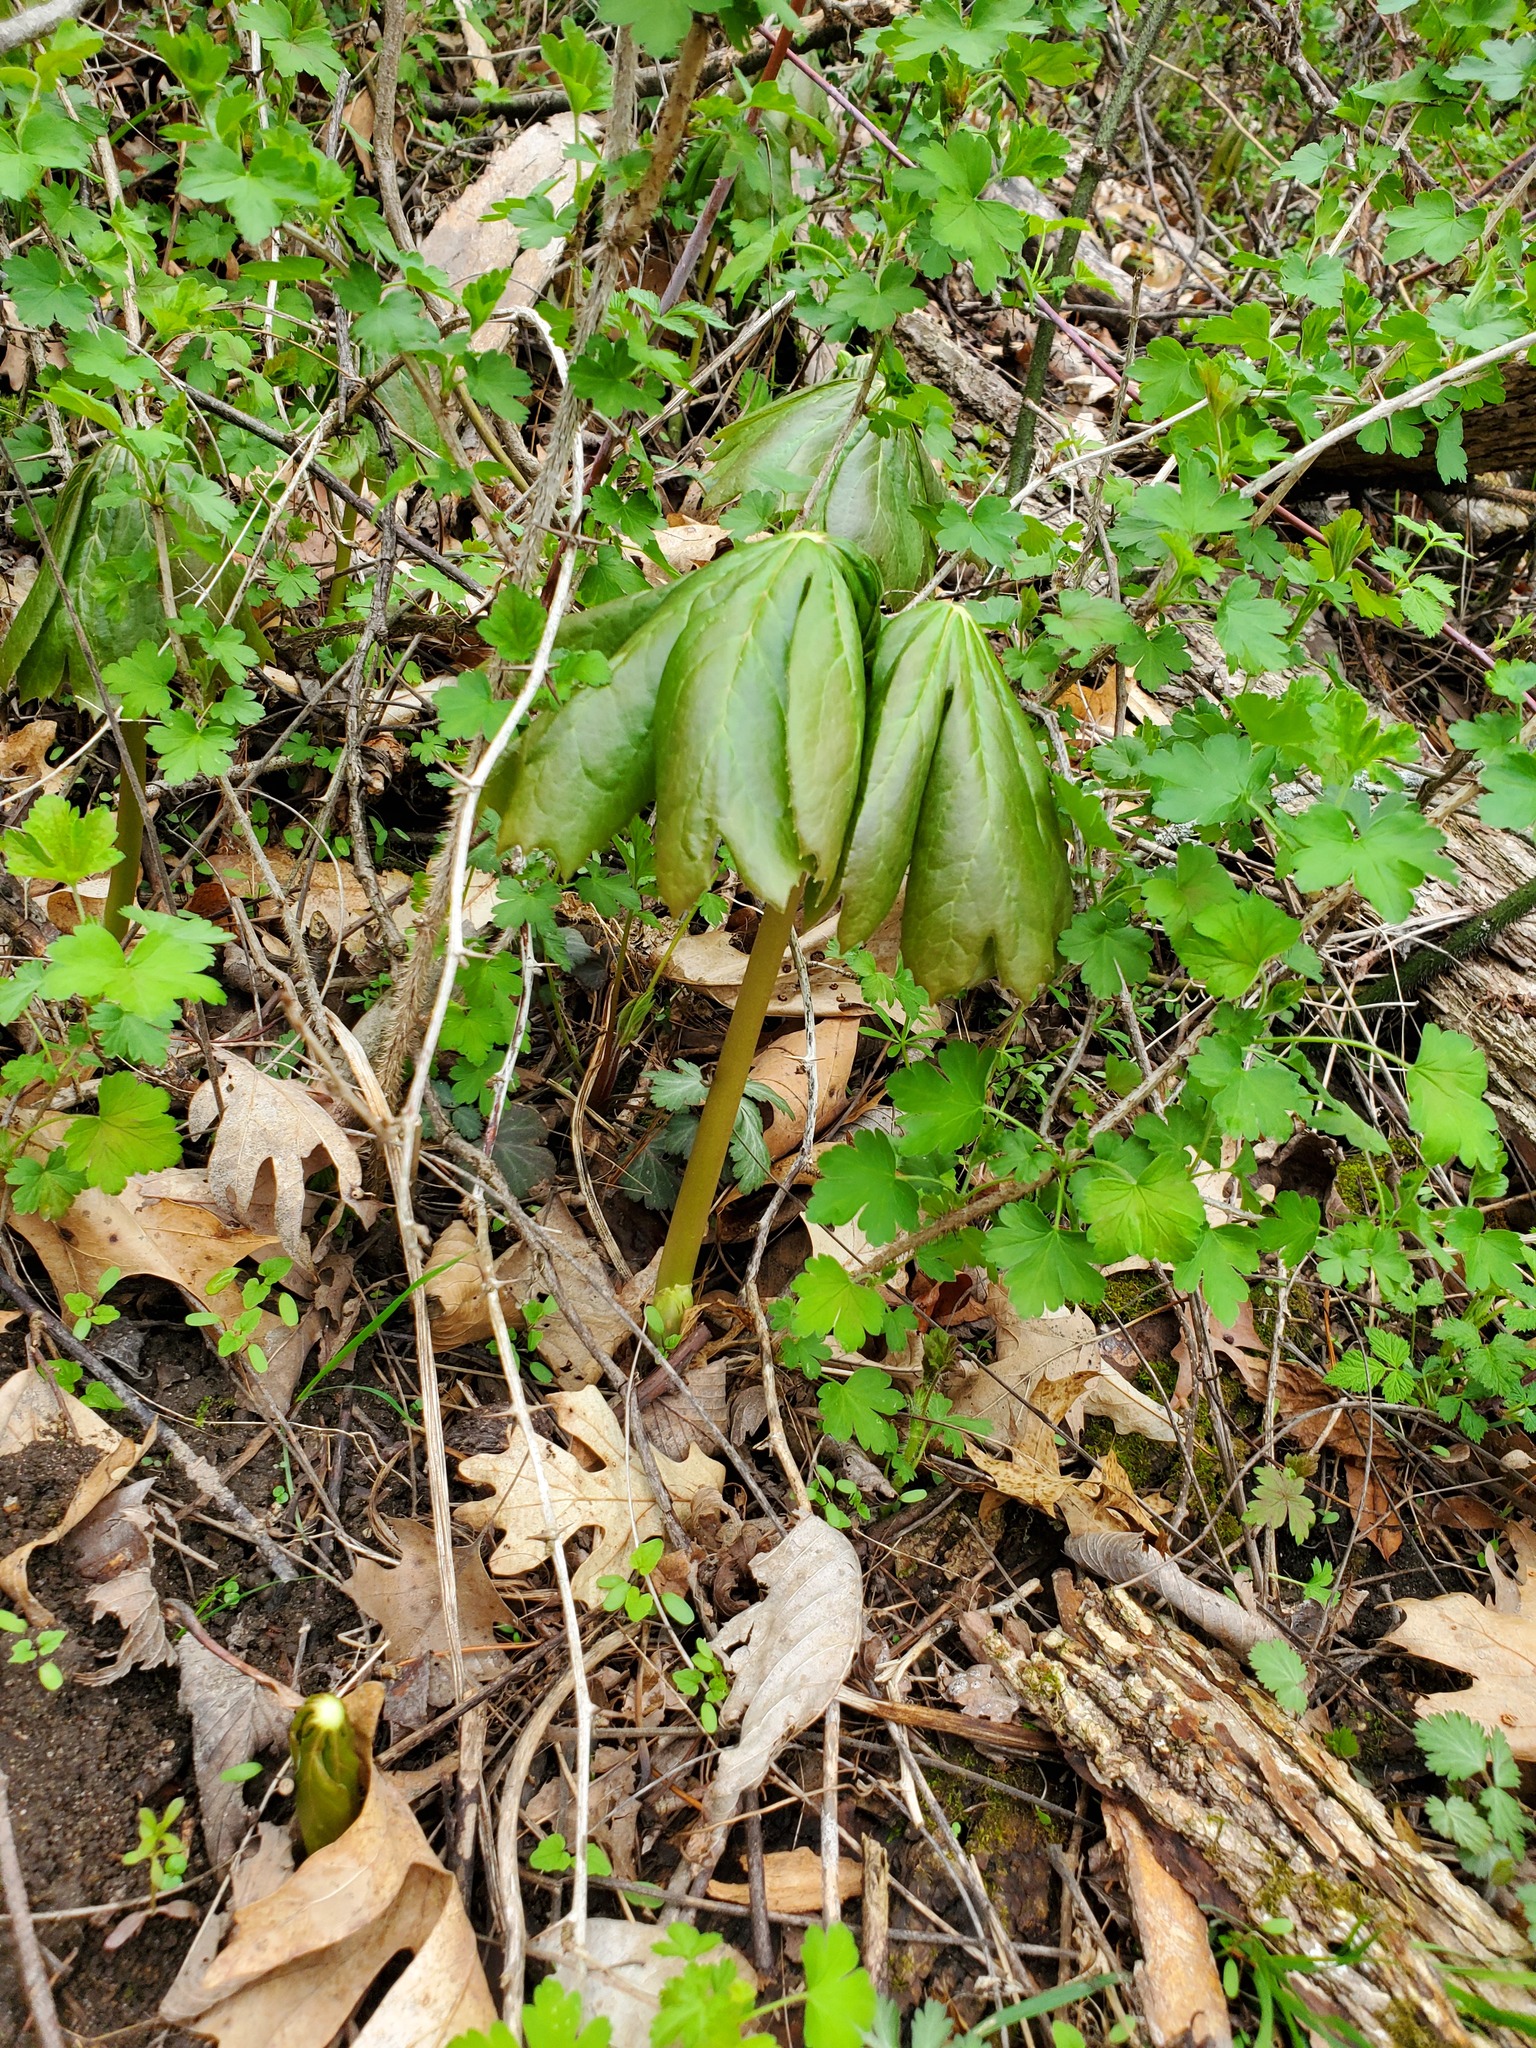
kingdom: Plantae
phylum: Tracheophyta
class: Magnoliopsida
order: Ranunculales
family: Berberidaceae
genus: Podophyllum
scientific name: Podophyllum peltatum
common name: Wild mandrake
